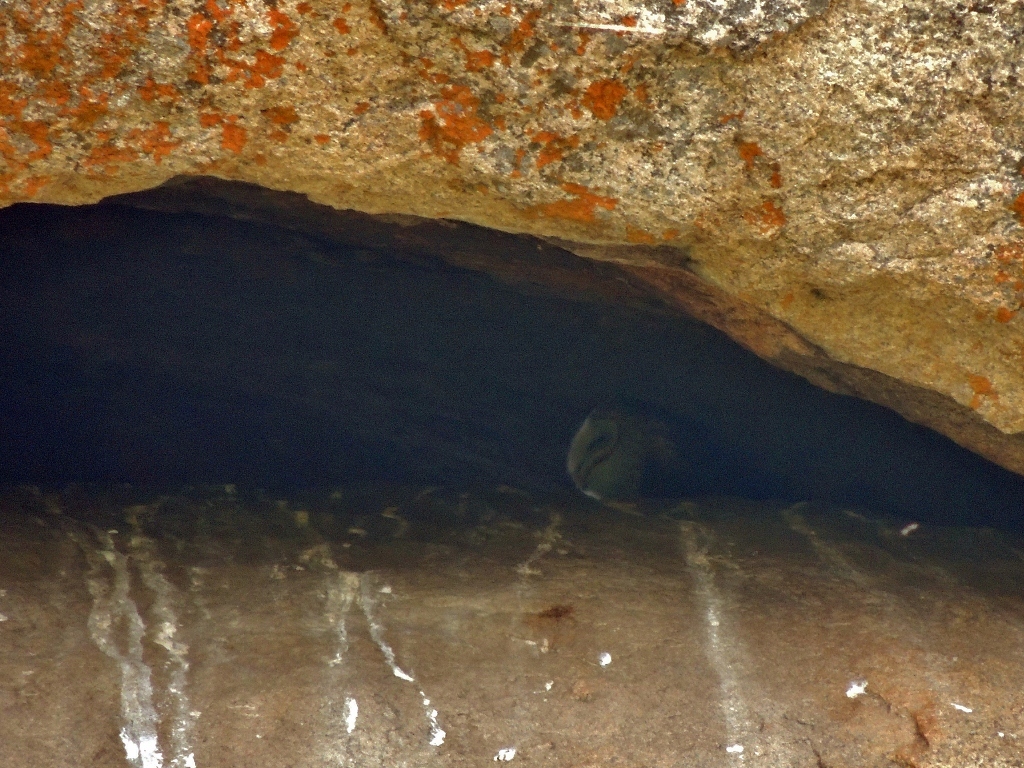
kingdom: Animalia
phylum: Chordata
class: Aves
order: Strigiformes
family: Tytonidae
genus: Tyto
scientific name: Tyto alba
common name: Barn owl
